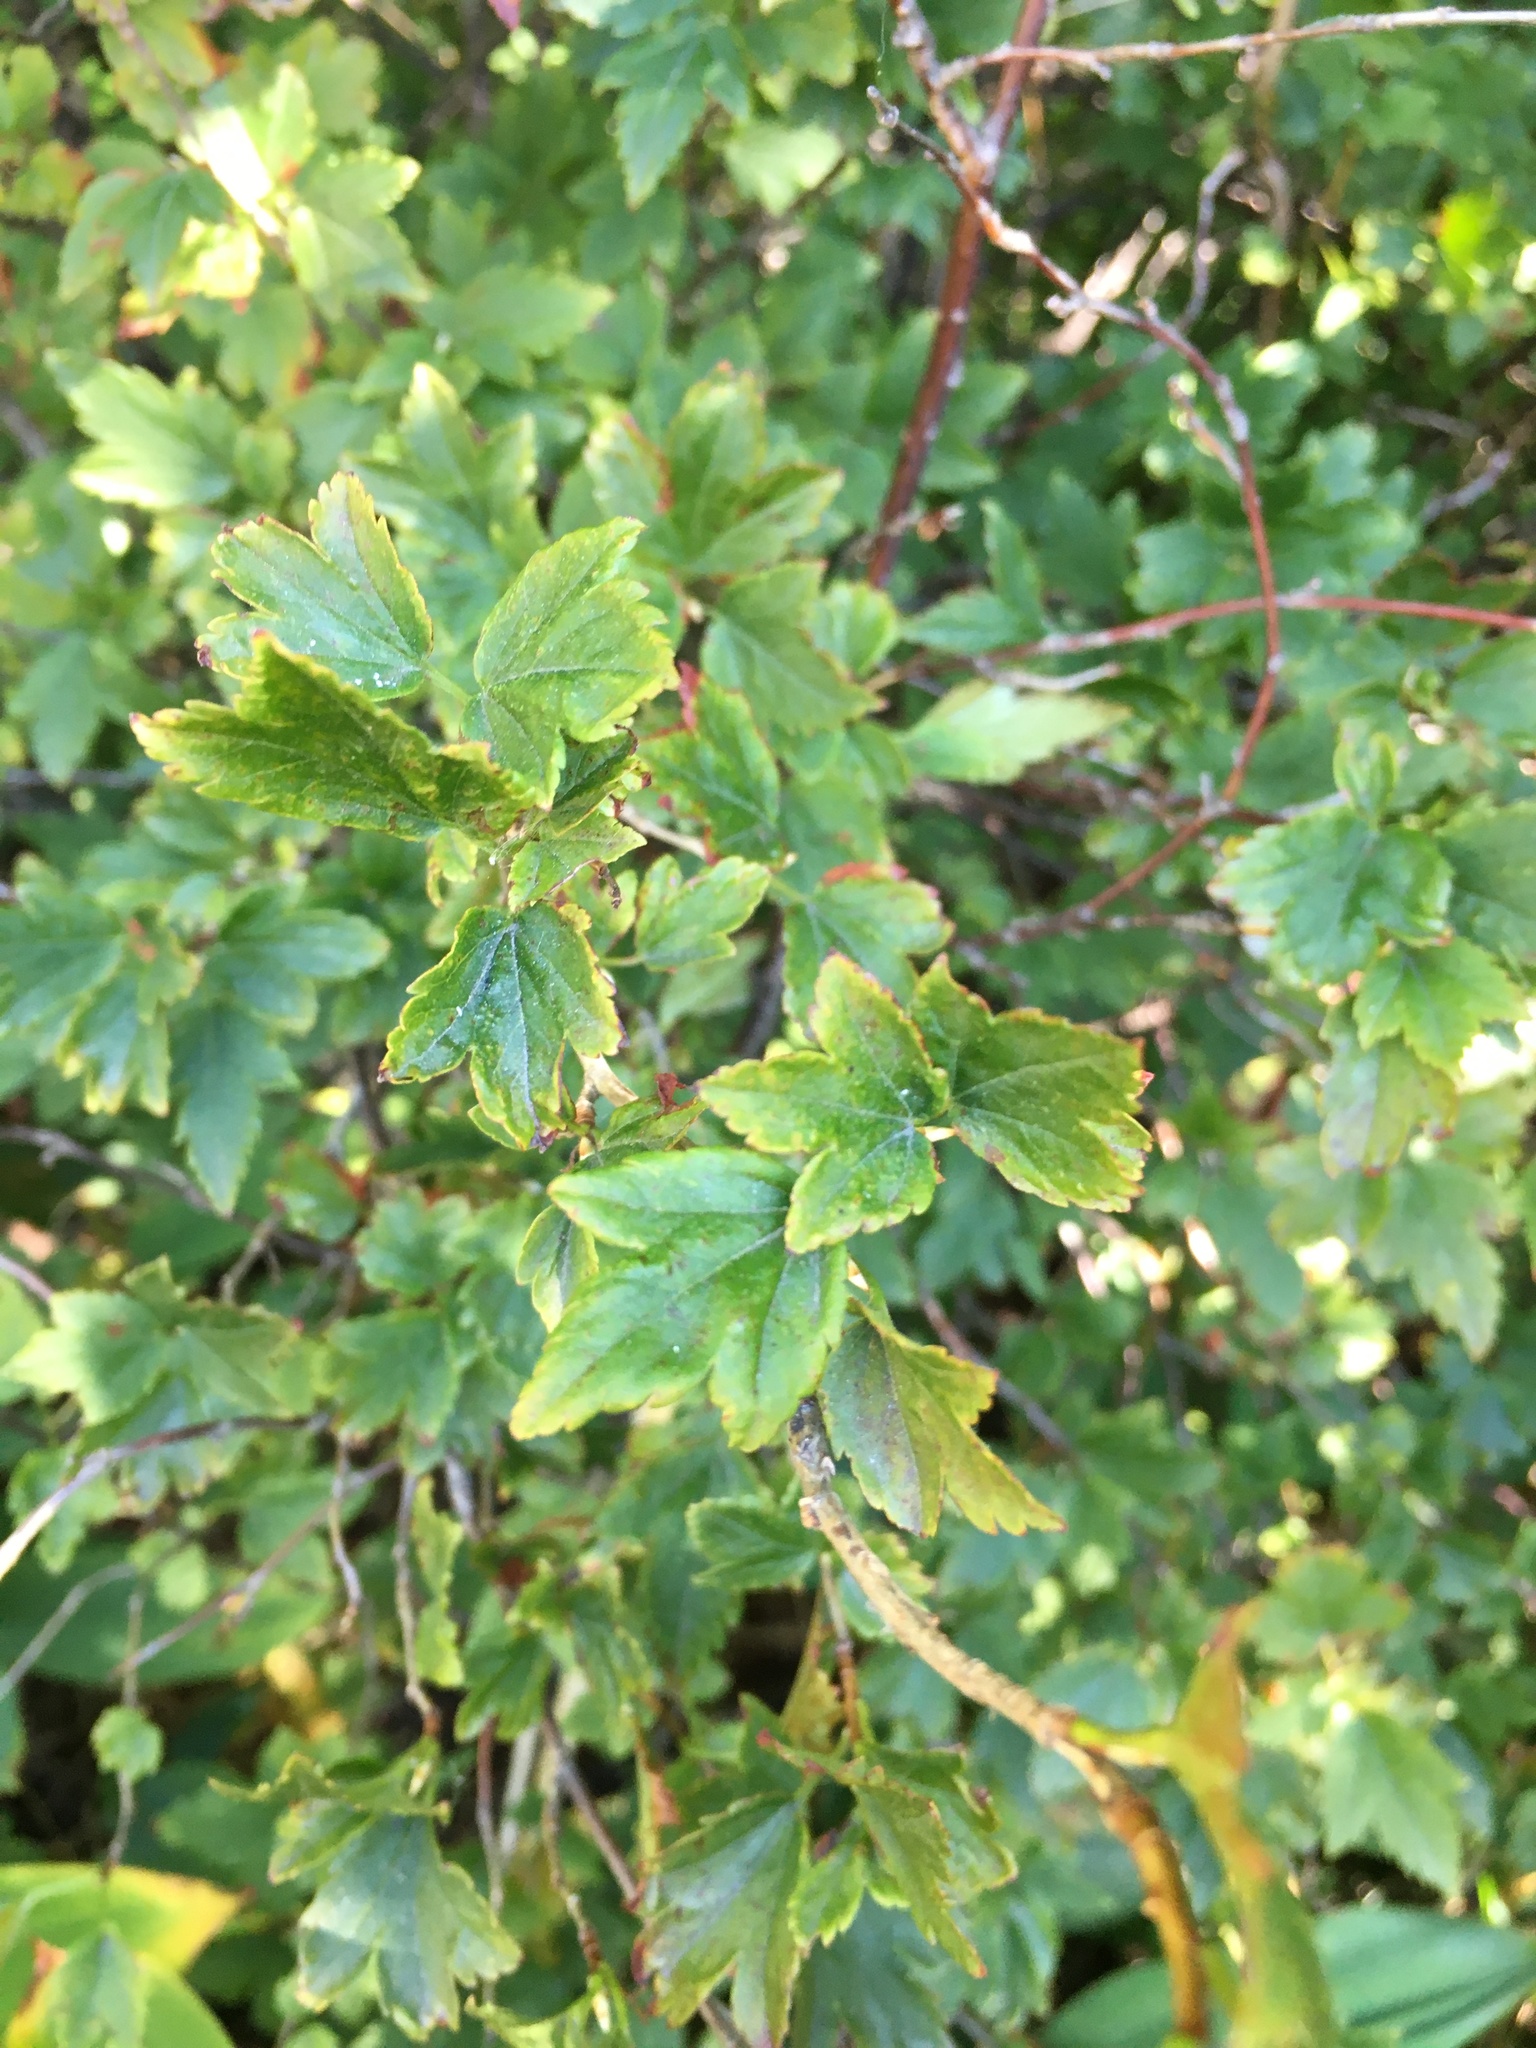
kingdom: Plantae
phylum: Tracheophyta
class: Magnoliopsida
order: Saxifragales
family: Grossulariaceae
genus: Ribes
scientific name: Ribes alpinum
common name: Alpine currant
